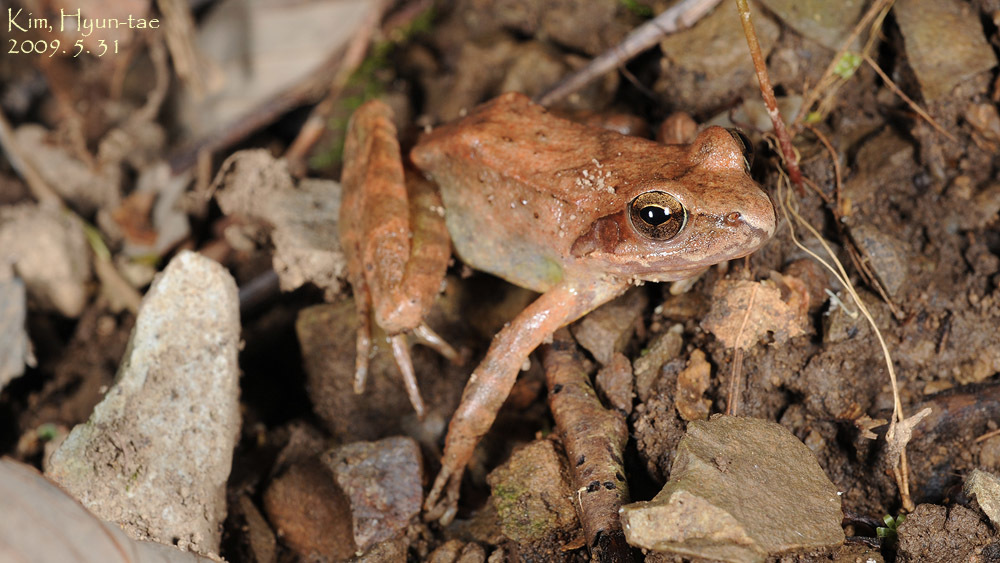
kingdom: Animalia
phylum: Chordata
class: Amphibia
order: Anura
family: Ranidae
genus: Rana
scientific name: Rana uenoi
